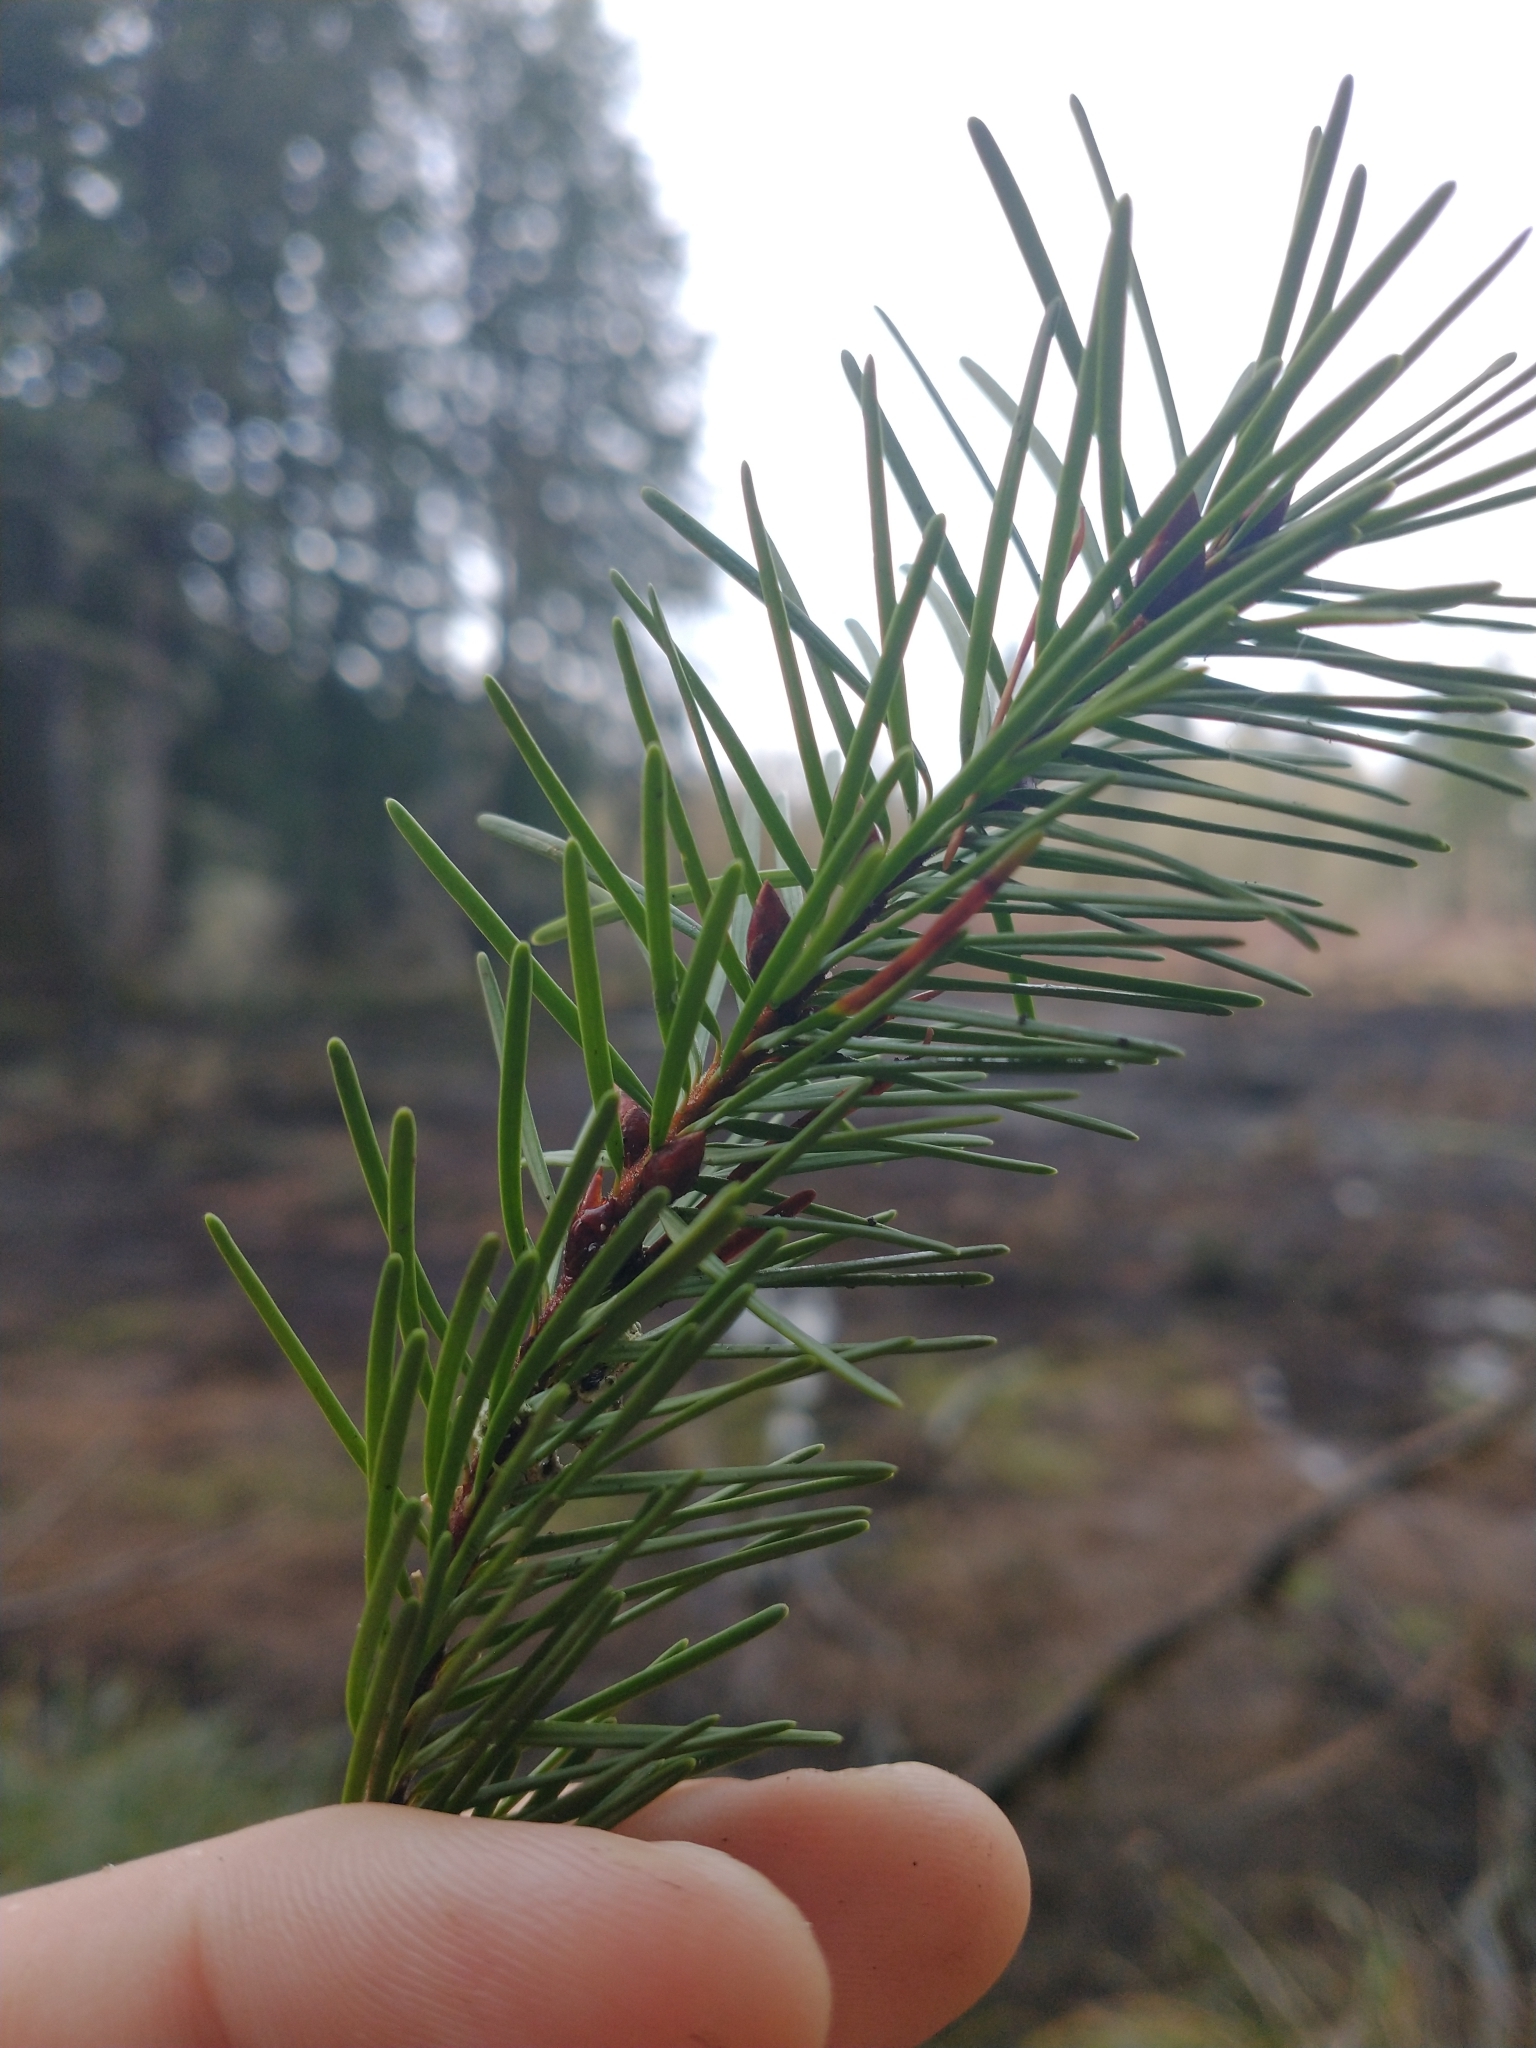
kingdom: Plantae
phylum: Tracheophyta
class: Pinopsida
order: Pinales
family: Pinaceae
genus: Pseudotsuga
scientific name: Pseudotsuga menziesii
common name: Douglas fir
